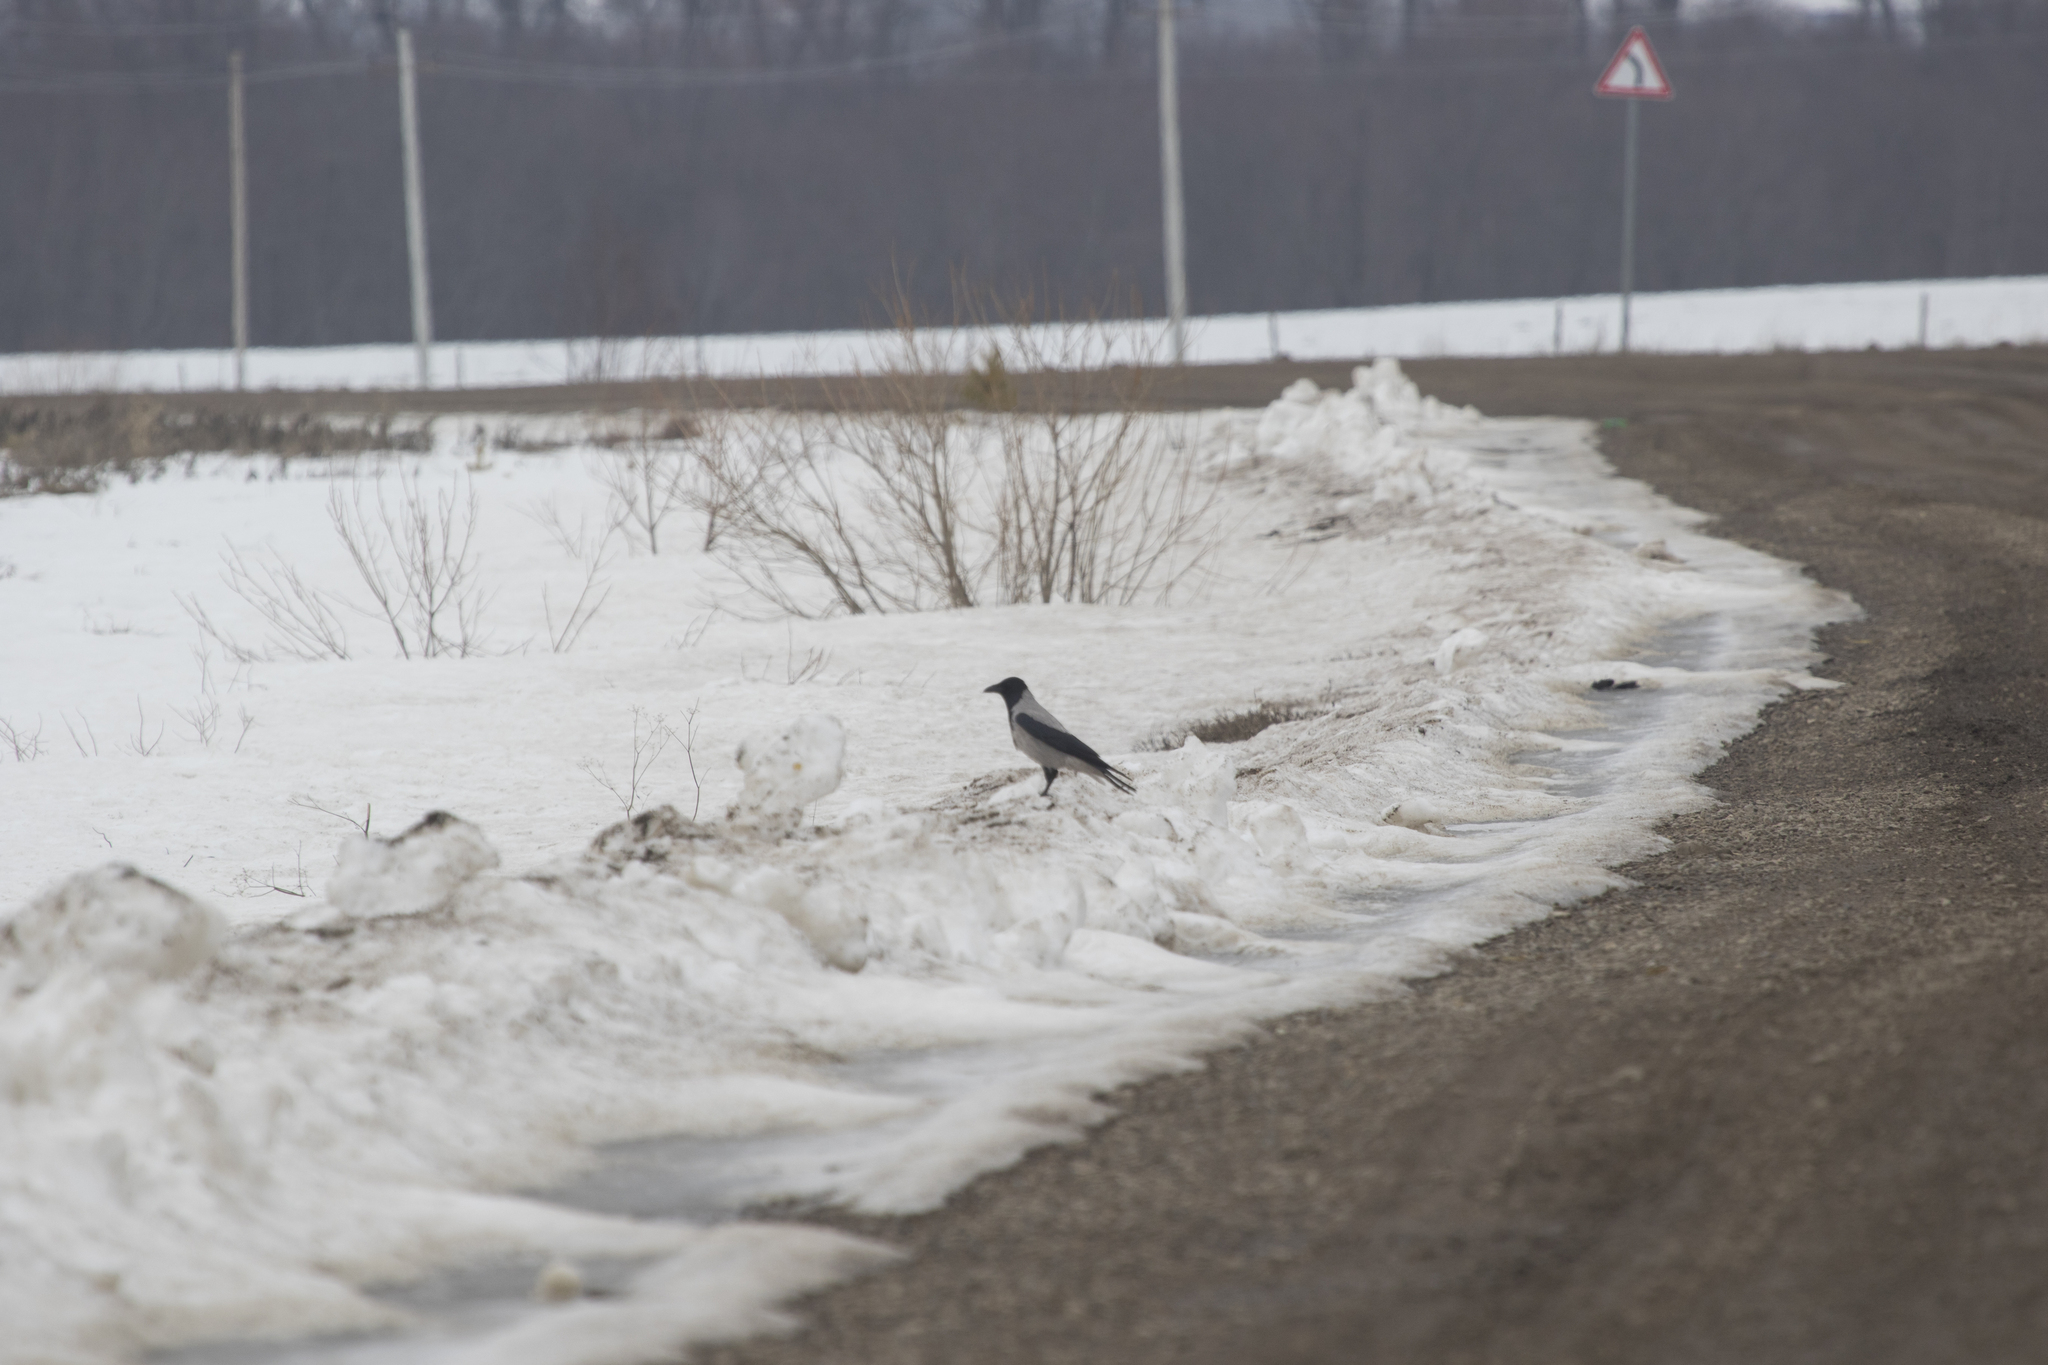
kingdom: Animalia
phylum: Chordata
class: Aves
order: Passeriformes
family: Corvidae
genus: Corvus
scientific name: Corvus cornix
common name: Hooded crow
